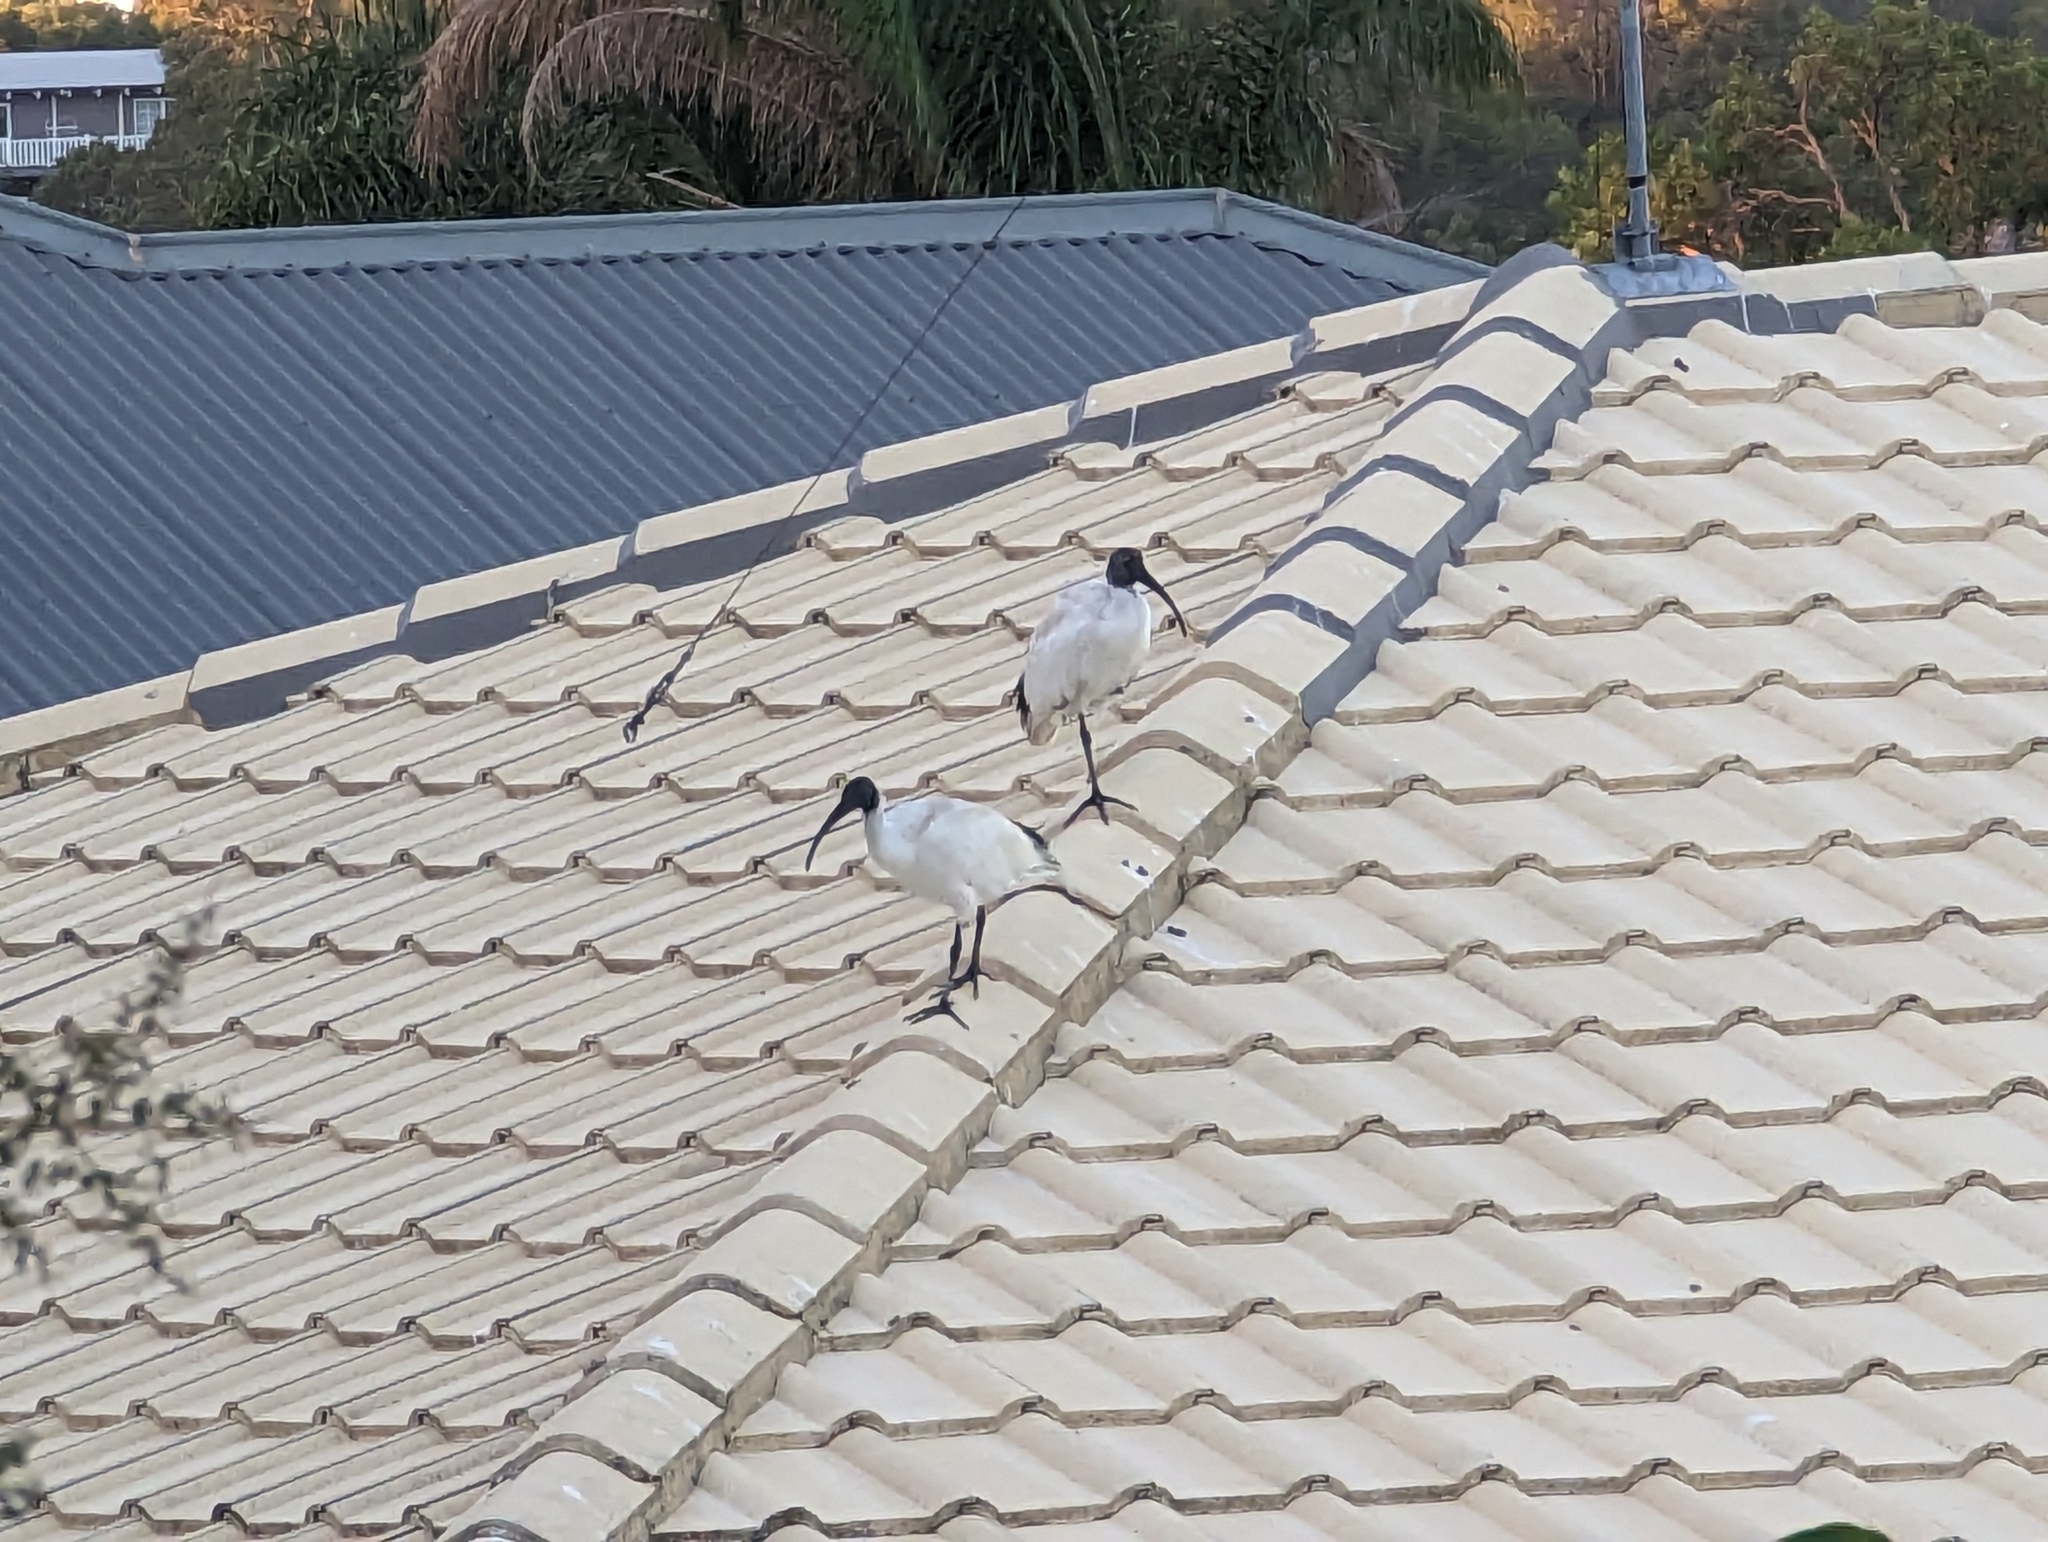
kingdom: Animalia
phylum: Chordata
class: Aves
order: Pelecaniformes
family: Threskiornithidae
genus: Threskiornis
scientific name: Threskiornis molucca
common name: Australian white ibis
